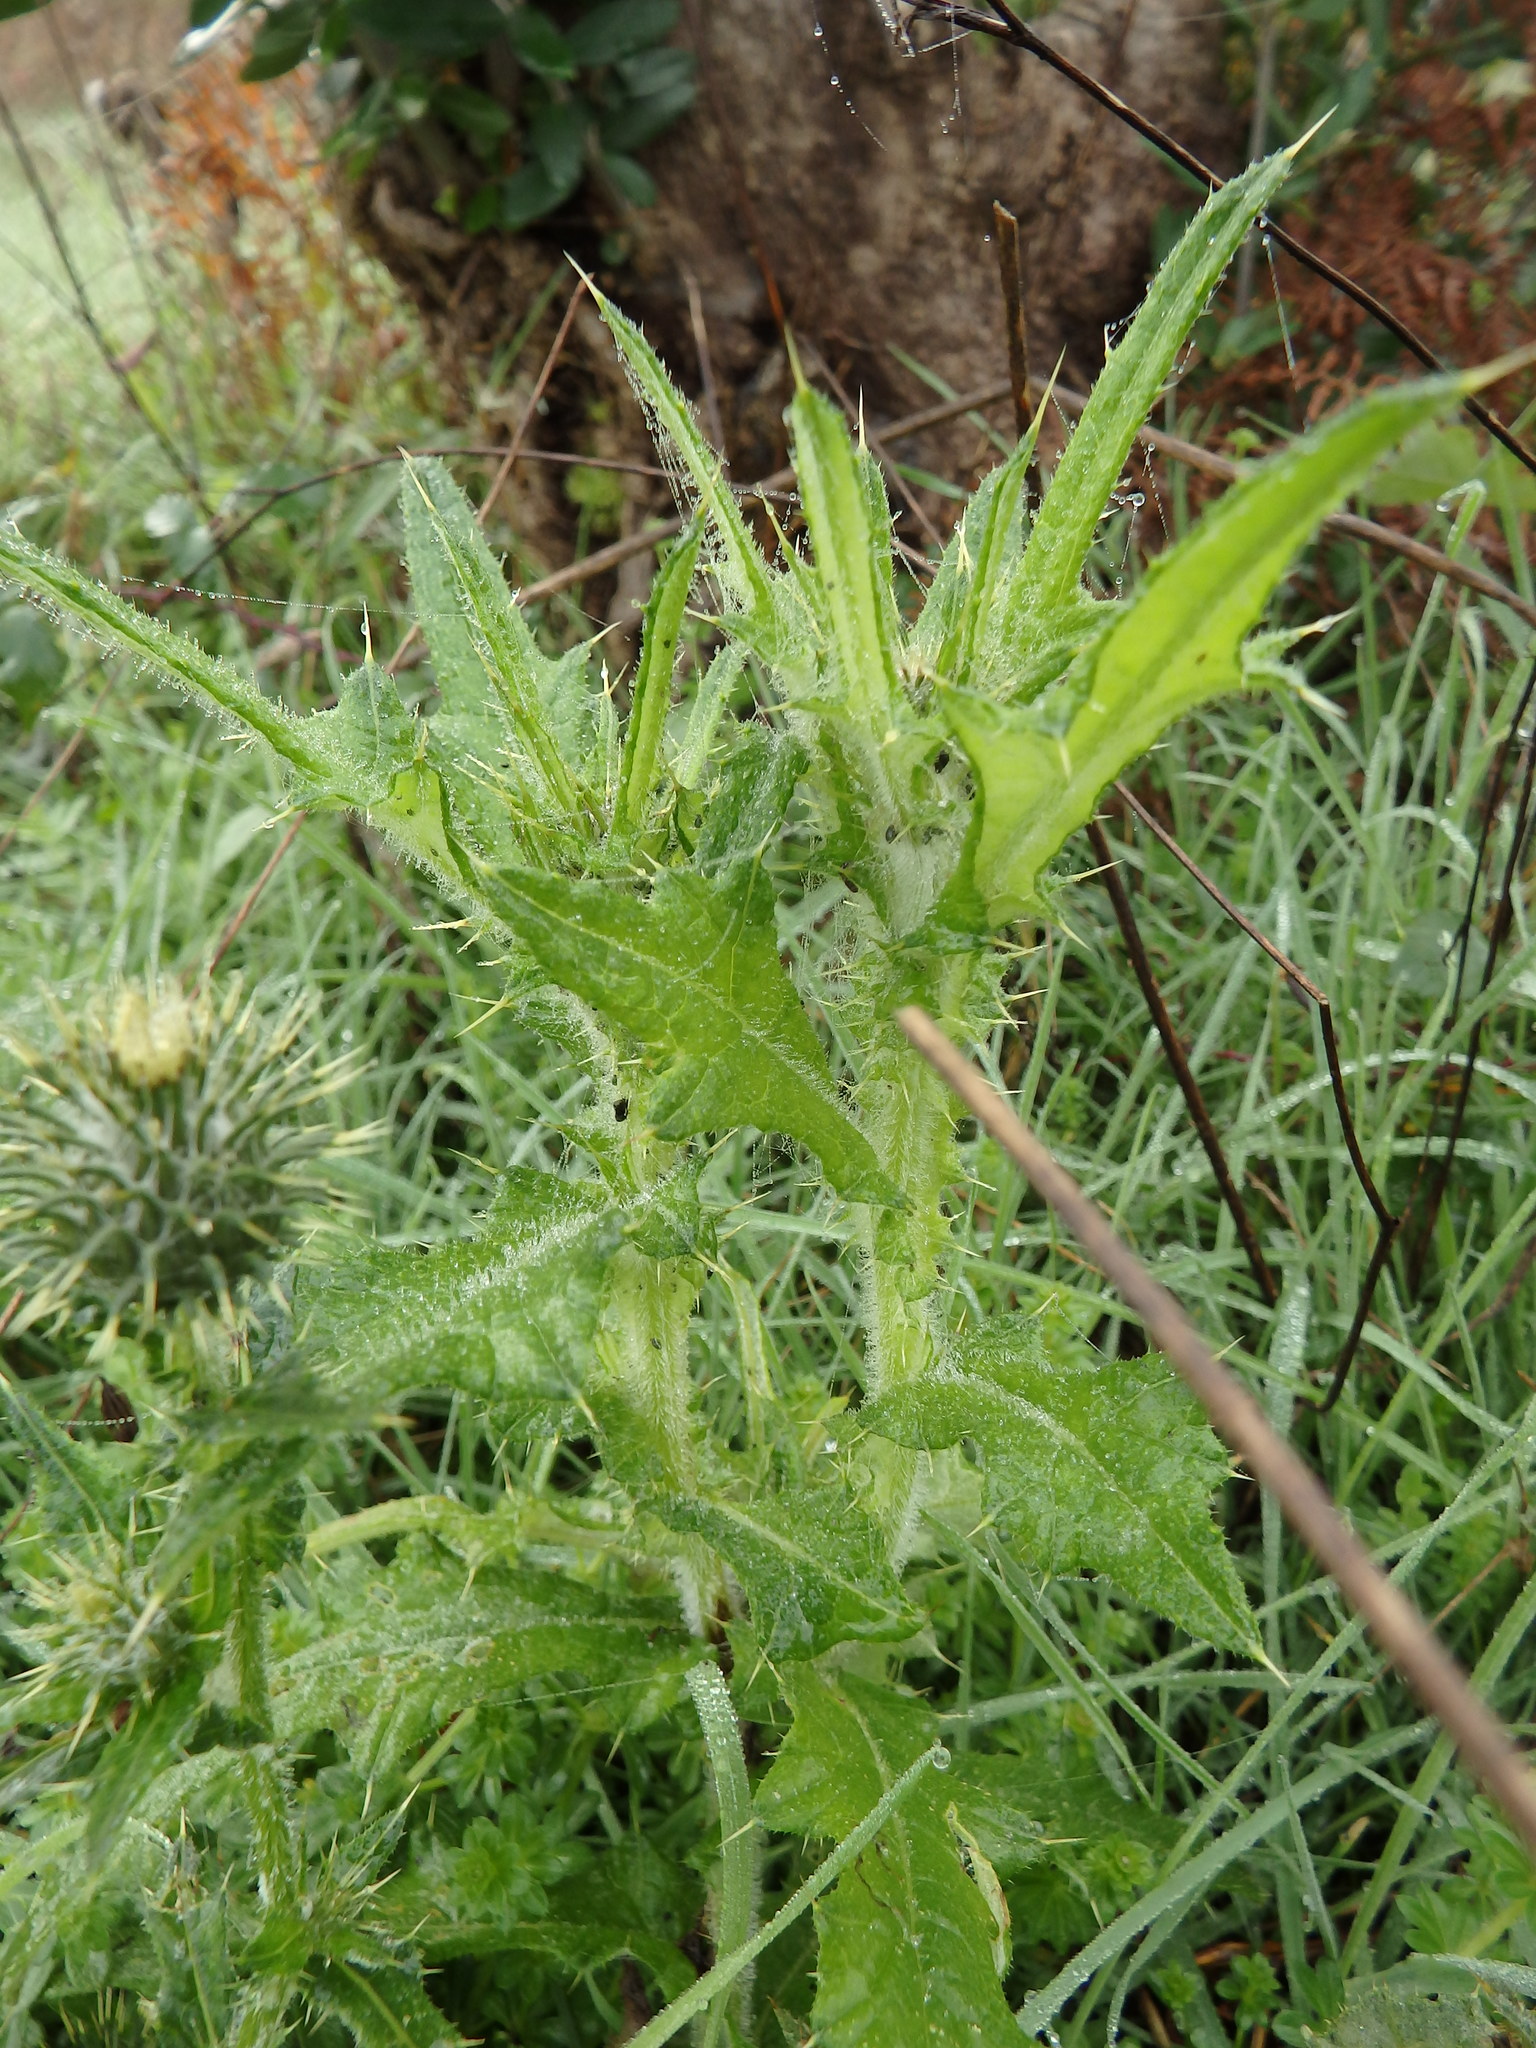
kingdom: Plantae
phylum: Tracheophyta
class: Magnoliopsida
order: Asterales
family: Asteraceae
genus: Cirsium
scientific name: Cirsium vulgare
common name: Bull thistle
